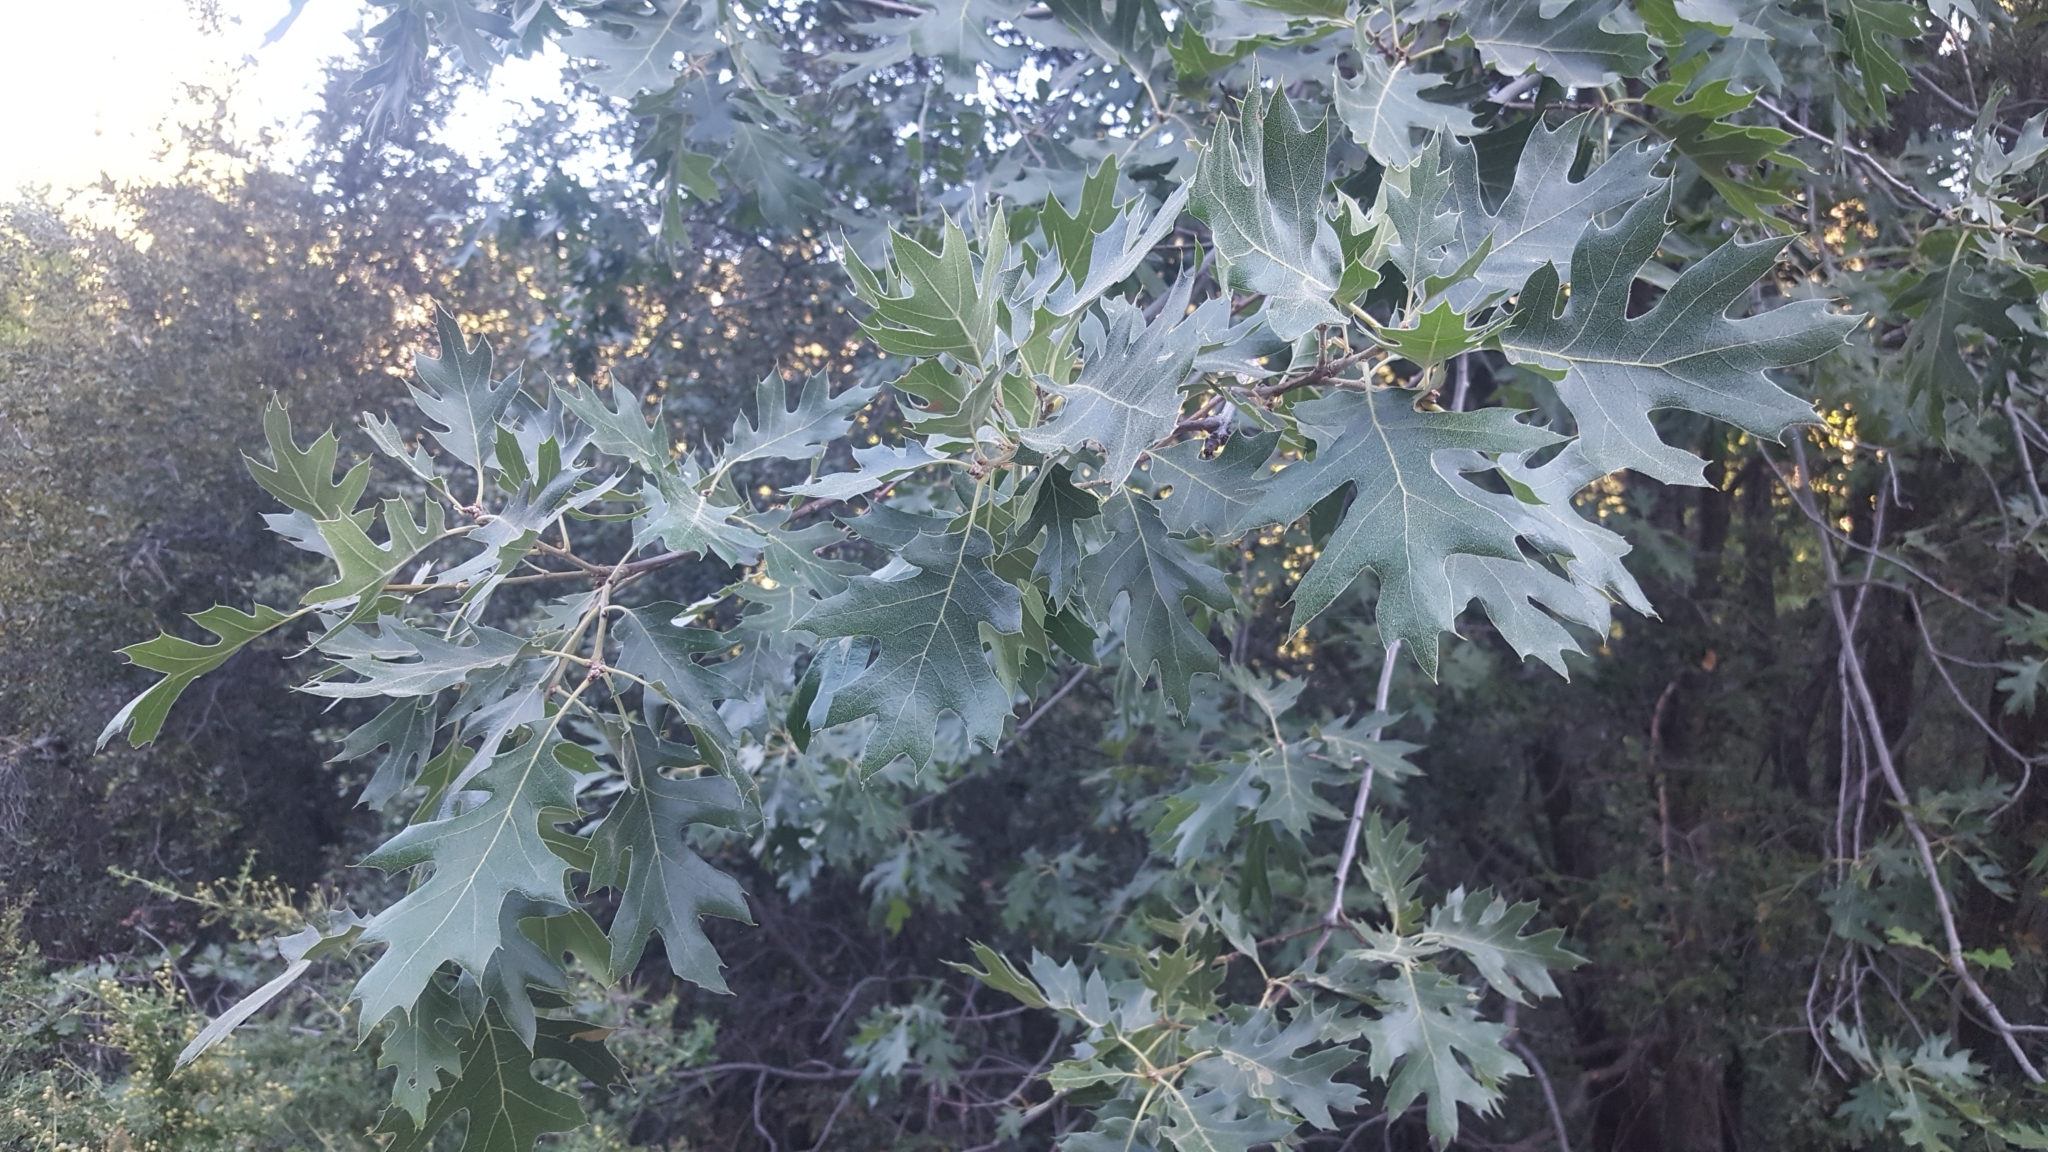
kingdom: Plantae
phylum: Tracheophyta
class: Magnoliopsida
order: Fagales
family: Fagaceae
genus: Quercus
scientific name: Quercus kelloggii
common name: California black oak
